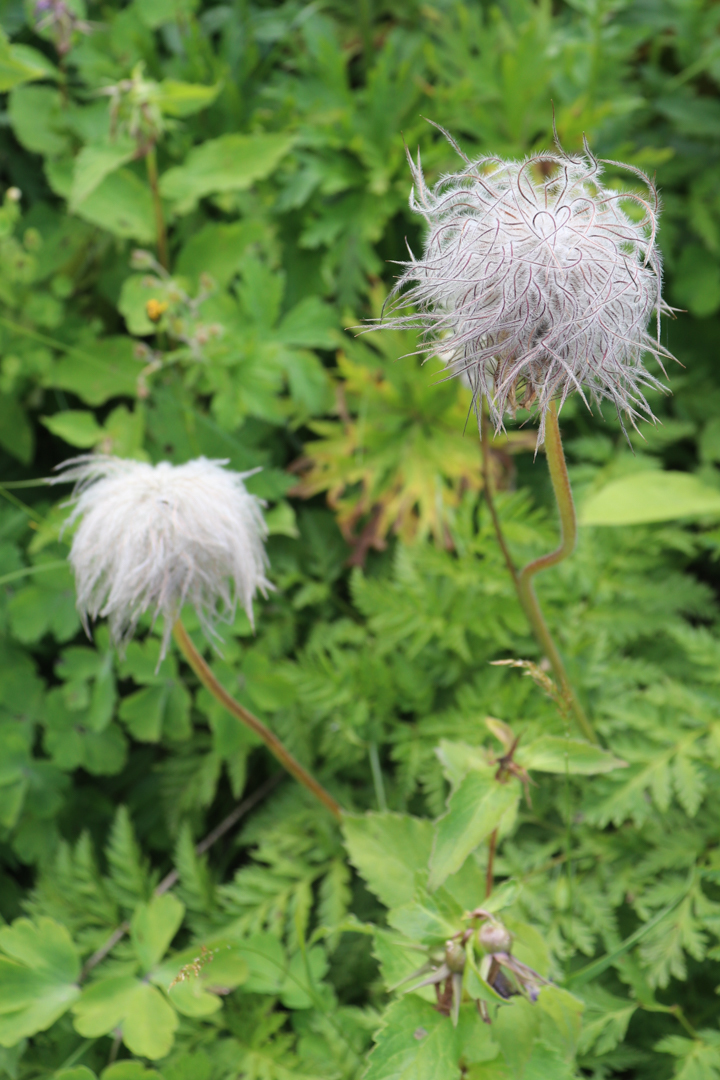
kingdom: Plantae
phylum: Tracheophyta
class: Magnoliopsida
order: Ranunculales
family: Ranunculaceae
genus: Pulsatilla
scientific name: Pulsatilla aurea
